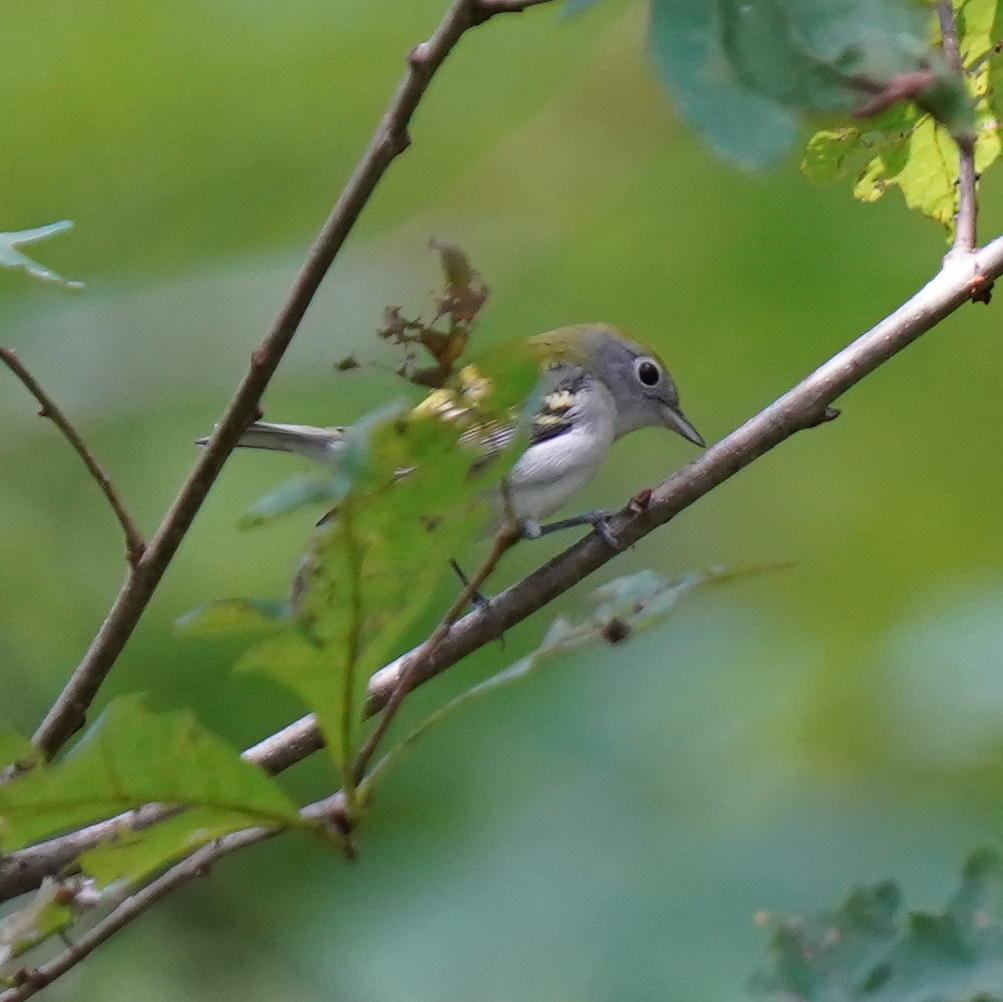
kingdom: Animalia
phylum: Chordata
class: Aves
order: Passeriformes
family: Parulidae
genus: Setophaga
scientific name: Setophaga pensylvanica
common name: Chestnut-sided warbler
